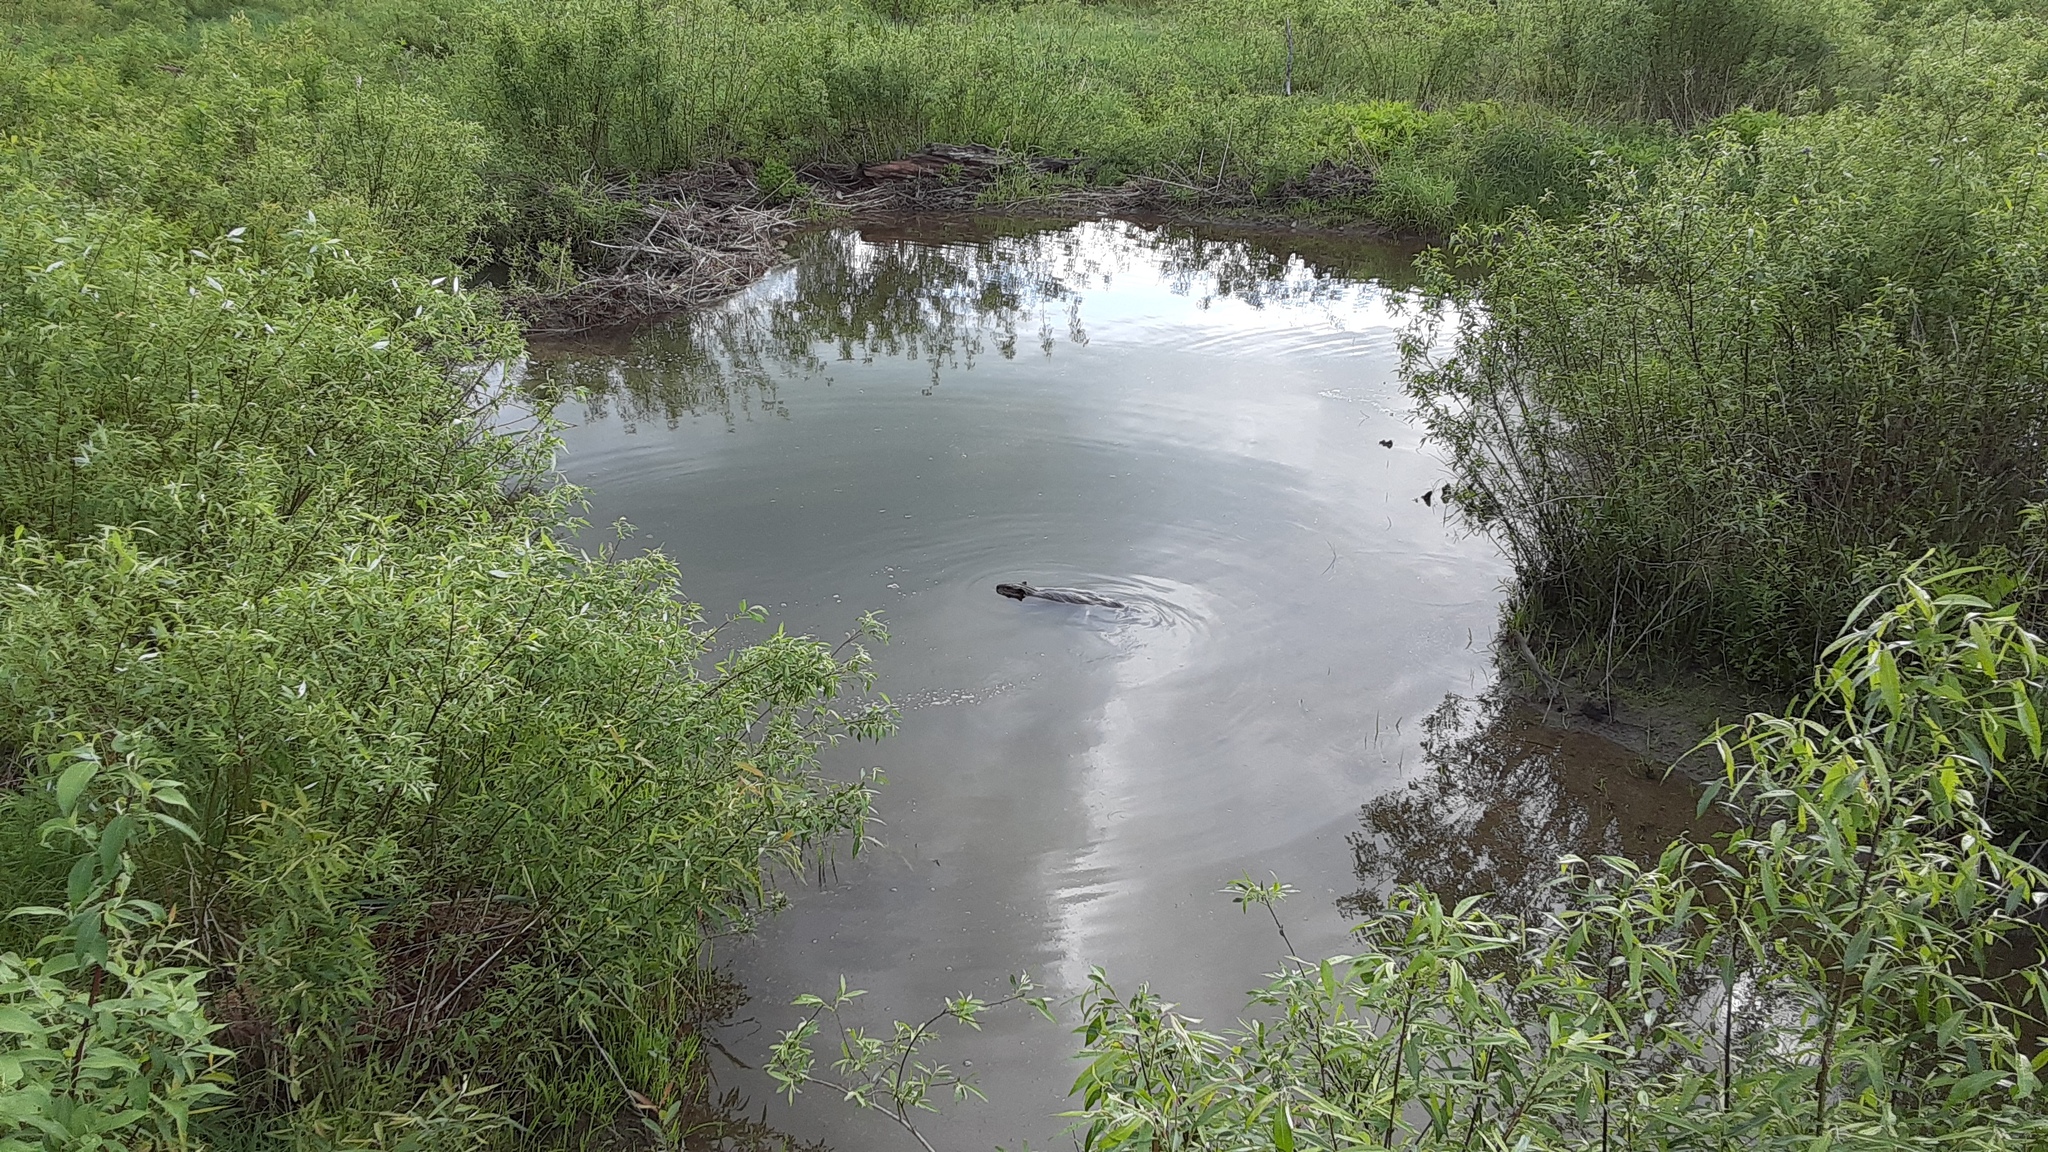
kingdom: Animalia
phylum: Chordata
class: Mammalia
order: Rodentia
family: Castoridae
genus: Castor
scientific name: Castor canadensis
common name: American beaver
